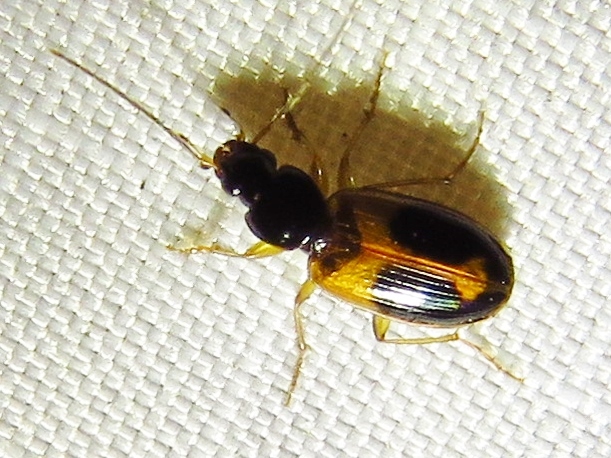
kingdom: Animalia
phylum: Arthropoda
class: Insecta
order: Coleoptera
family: Carabidae
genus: Badister
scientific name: Badister elegans
